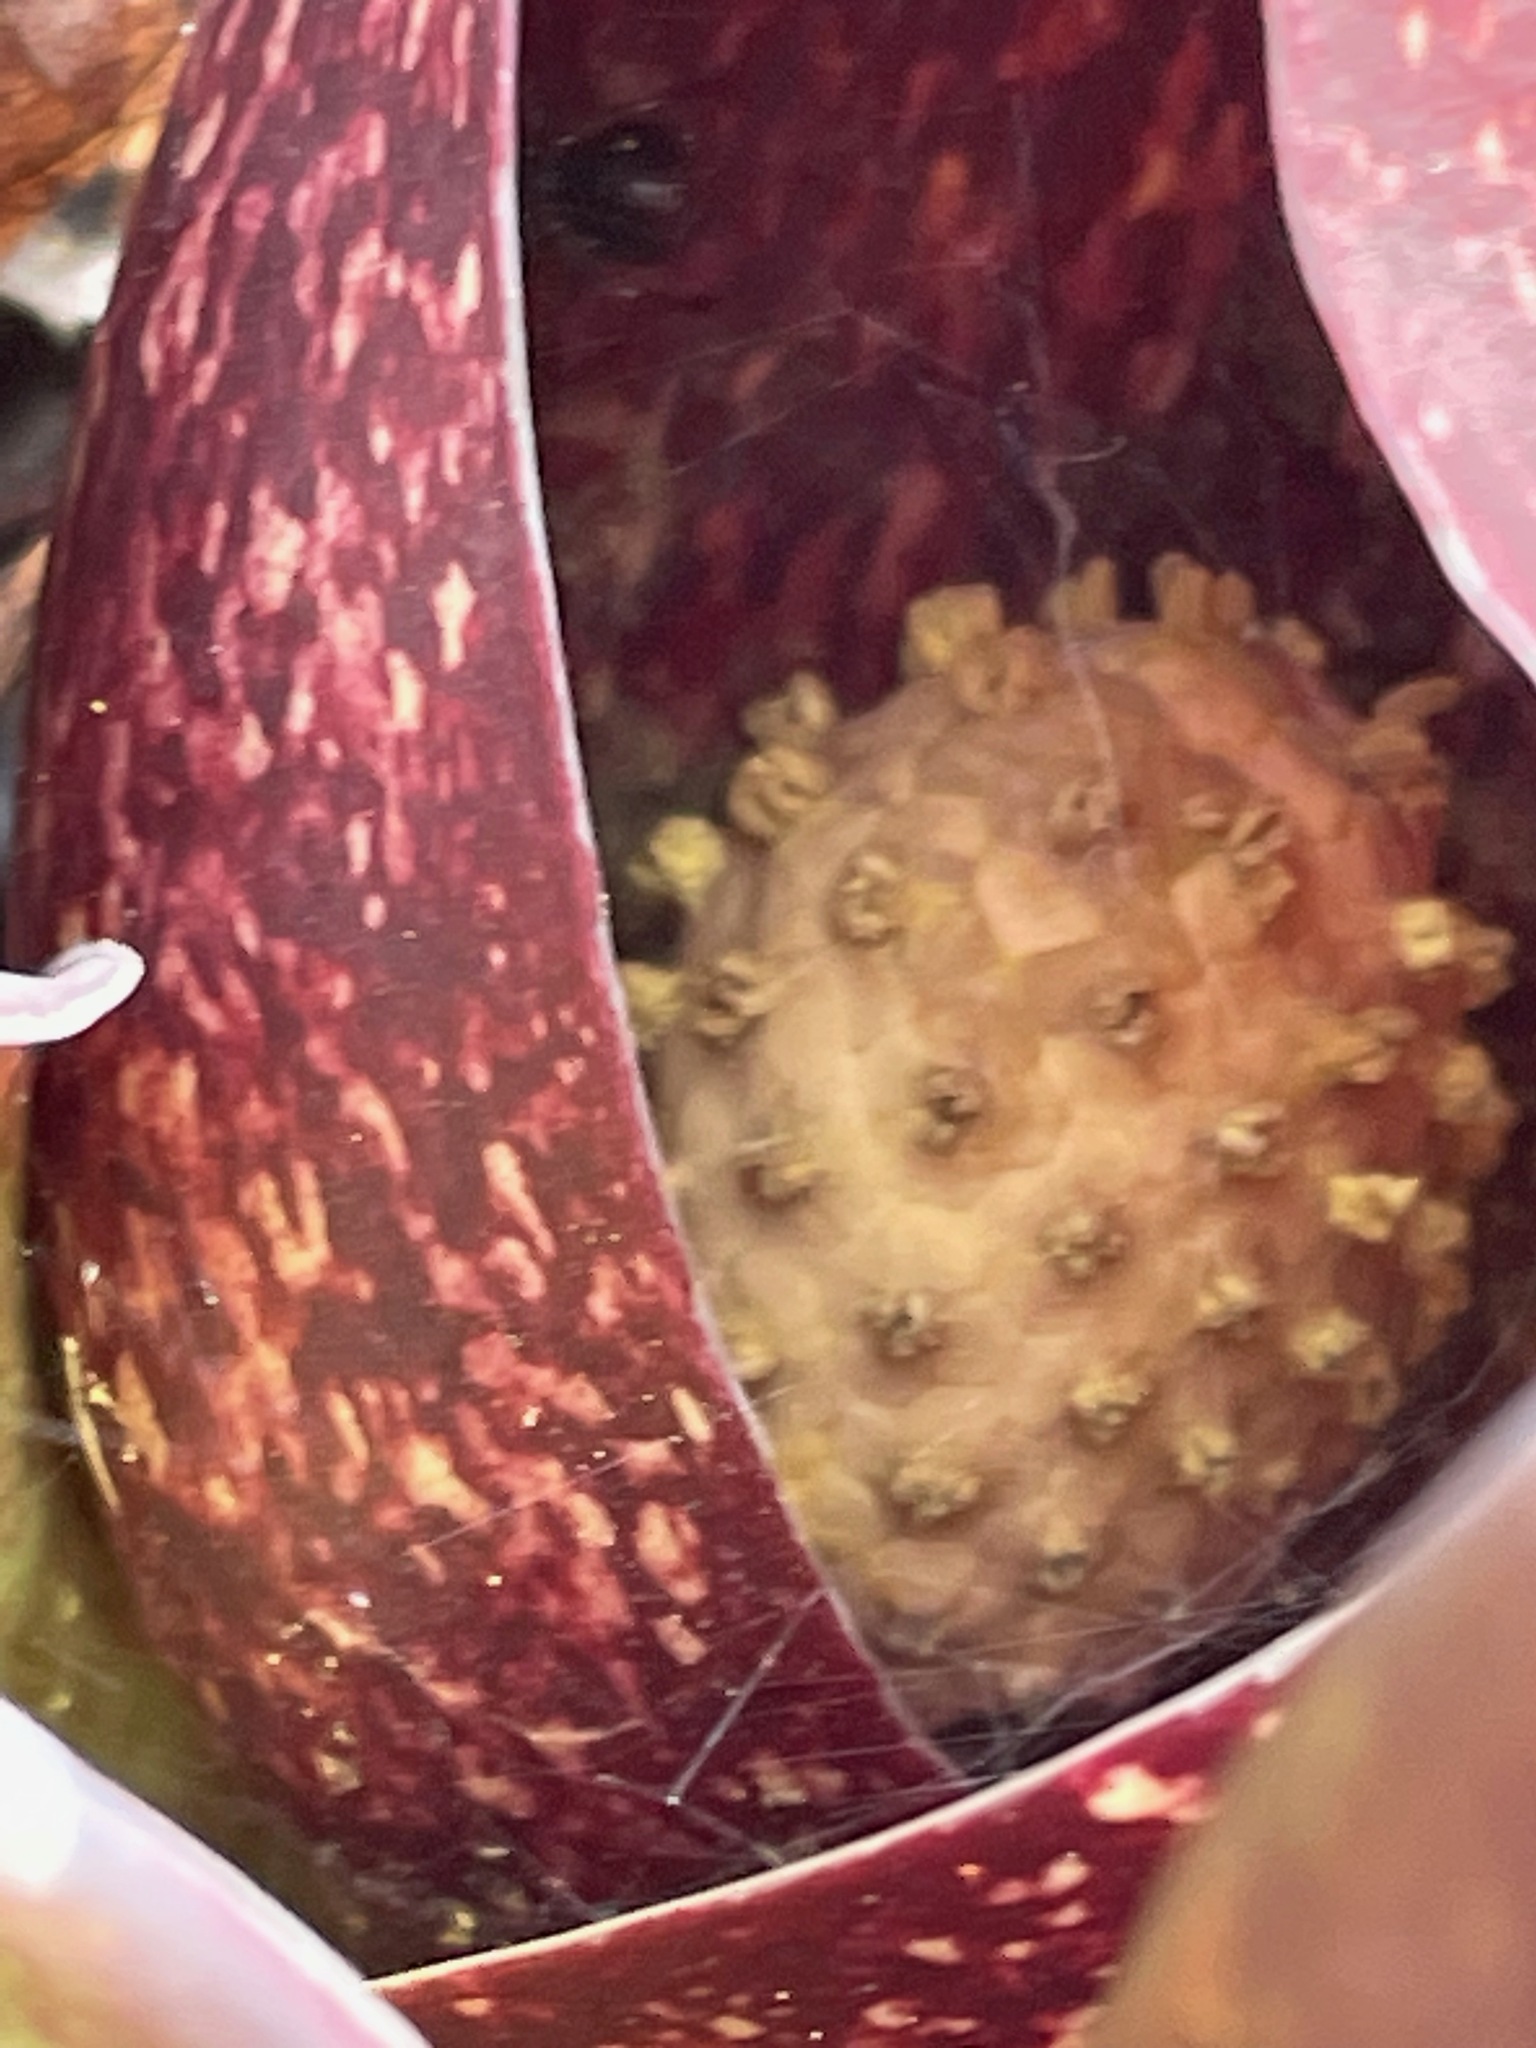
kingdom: Plantae
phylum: Tracheophyta
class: Liliopsida
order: Alismatales
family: Araceae
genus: Symplocarpus
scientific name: Symplocarpus foetidus
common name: Eastern skunk cabbage
